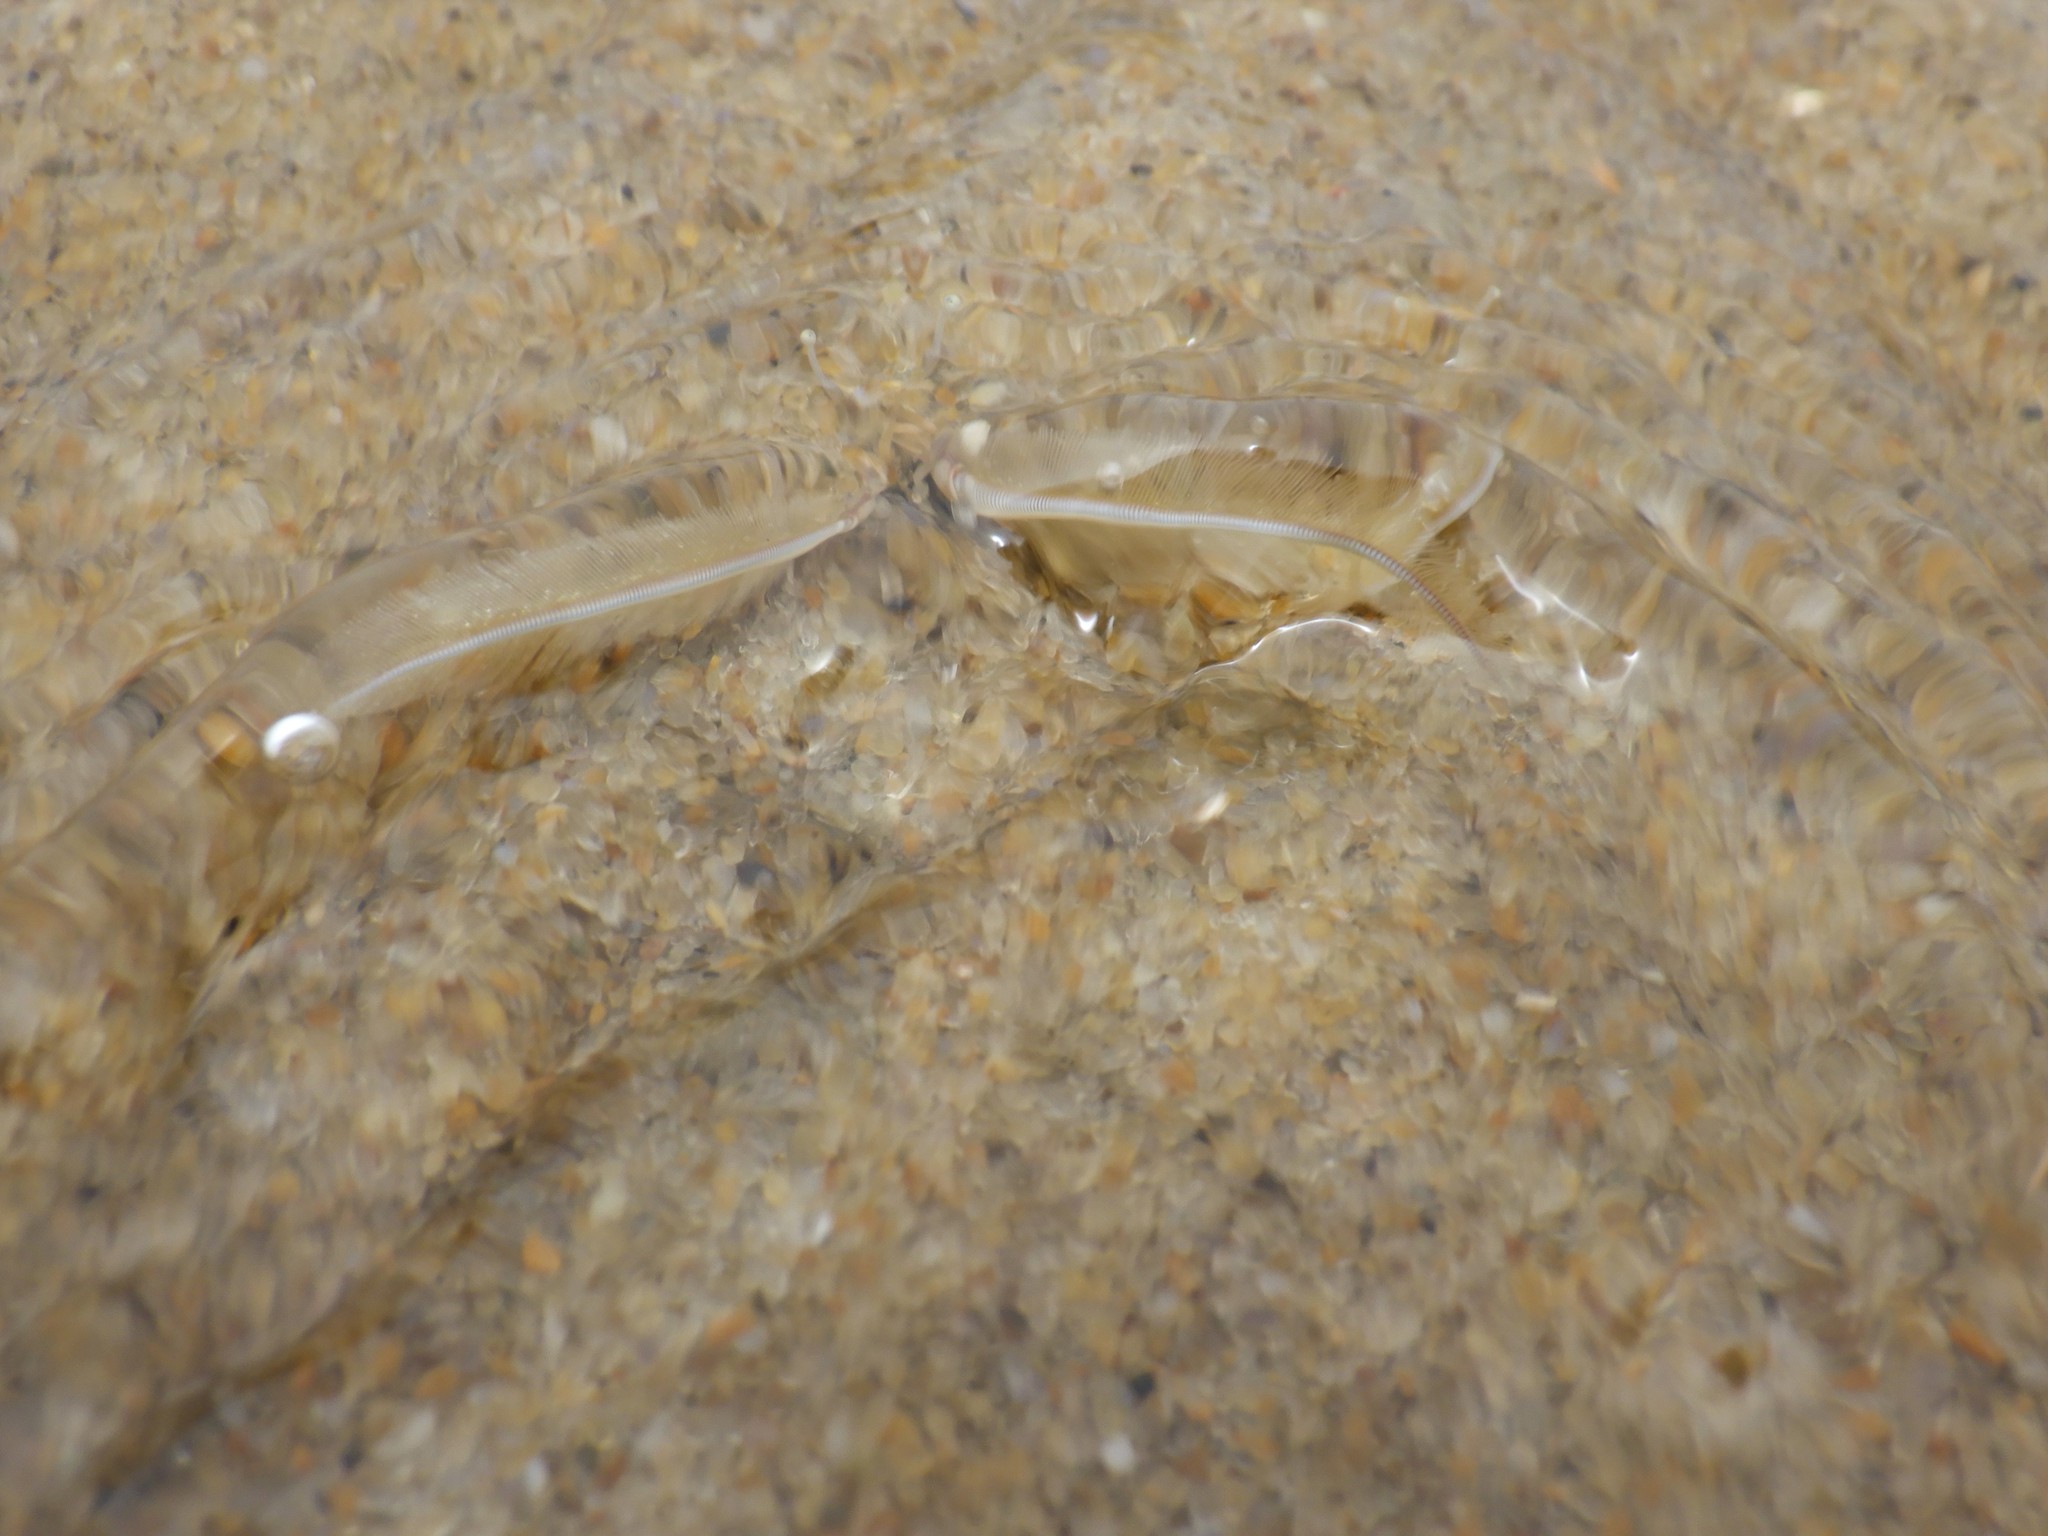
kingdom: Animalia
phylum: Arthropoda
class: Malacostraca
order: Decapoda
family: Hippidae
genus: Emerita
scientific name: Emerita talpoida
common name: Atlantic sand crab
